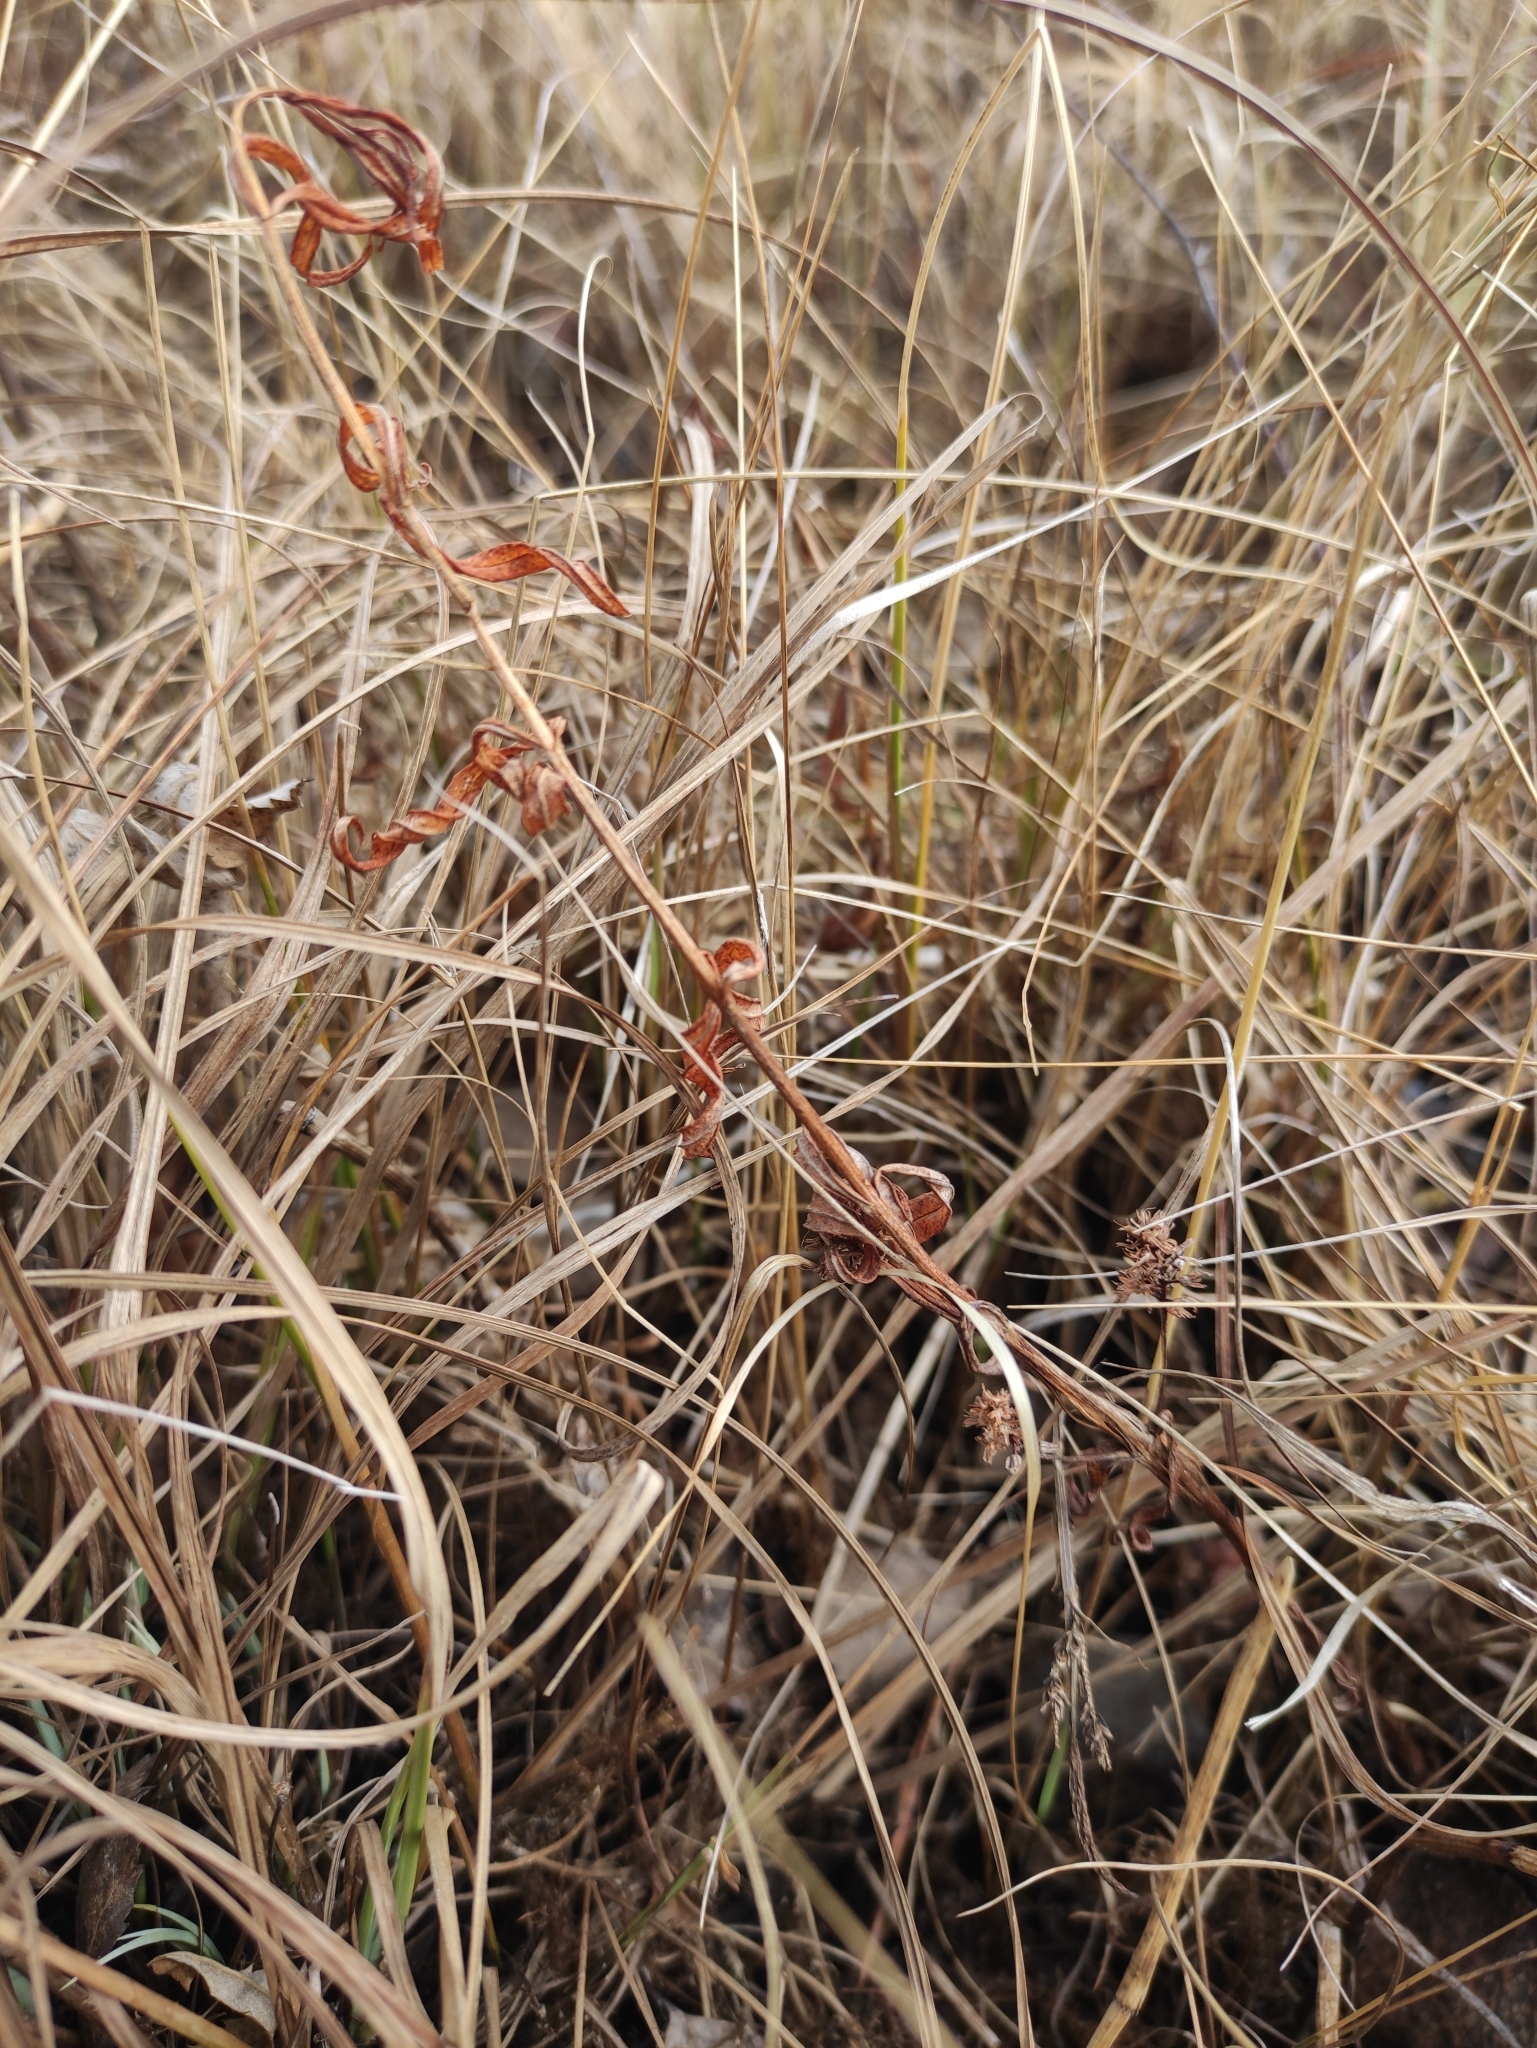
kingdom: Plantae
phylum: Tracheophyta
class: Magnoliopsida
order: Ericales
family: Primulaceae
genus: Lysimachia
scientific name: Lysimachia thyrsiflora
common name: Tufted loosestrife
